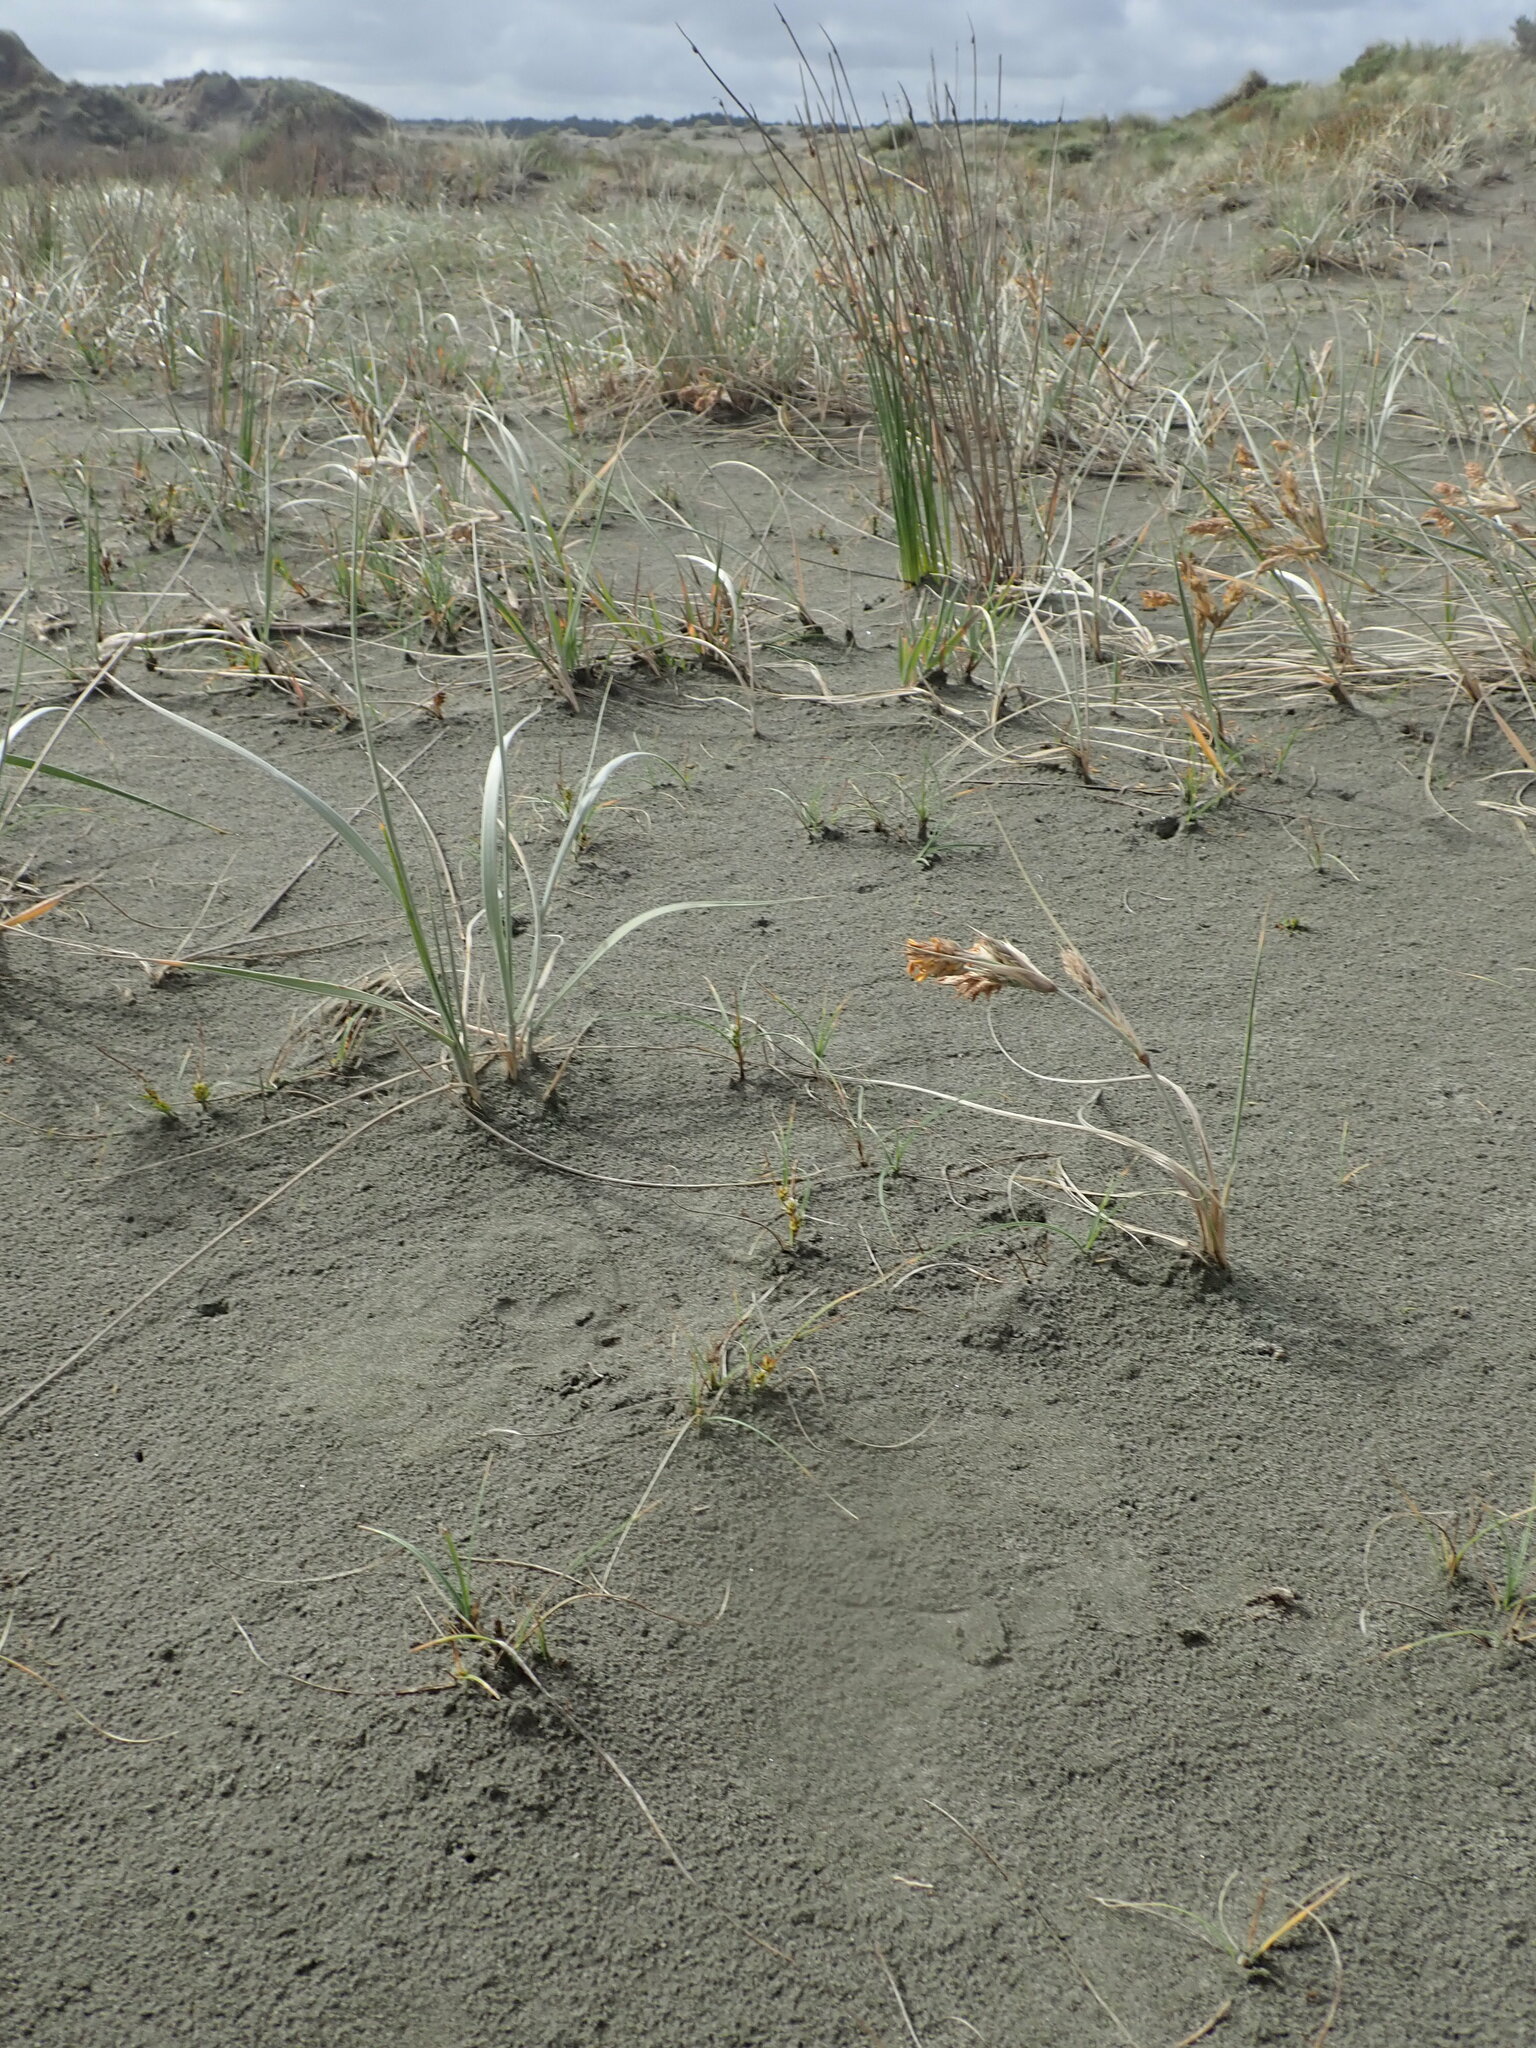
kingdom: Plantae
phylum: Tracheophyta
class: Liliopsida
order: Poales
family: Cyperaceae
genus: Carex
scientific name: Carex pumila
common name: Dwarf sedge
